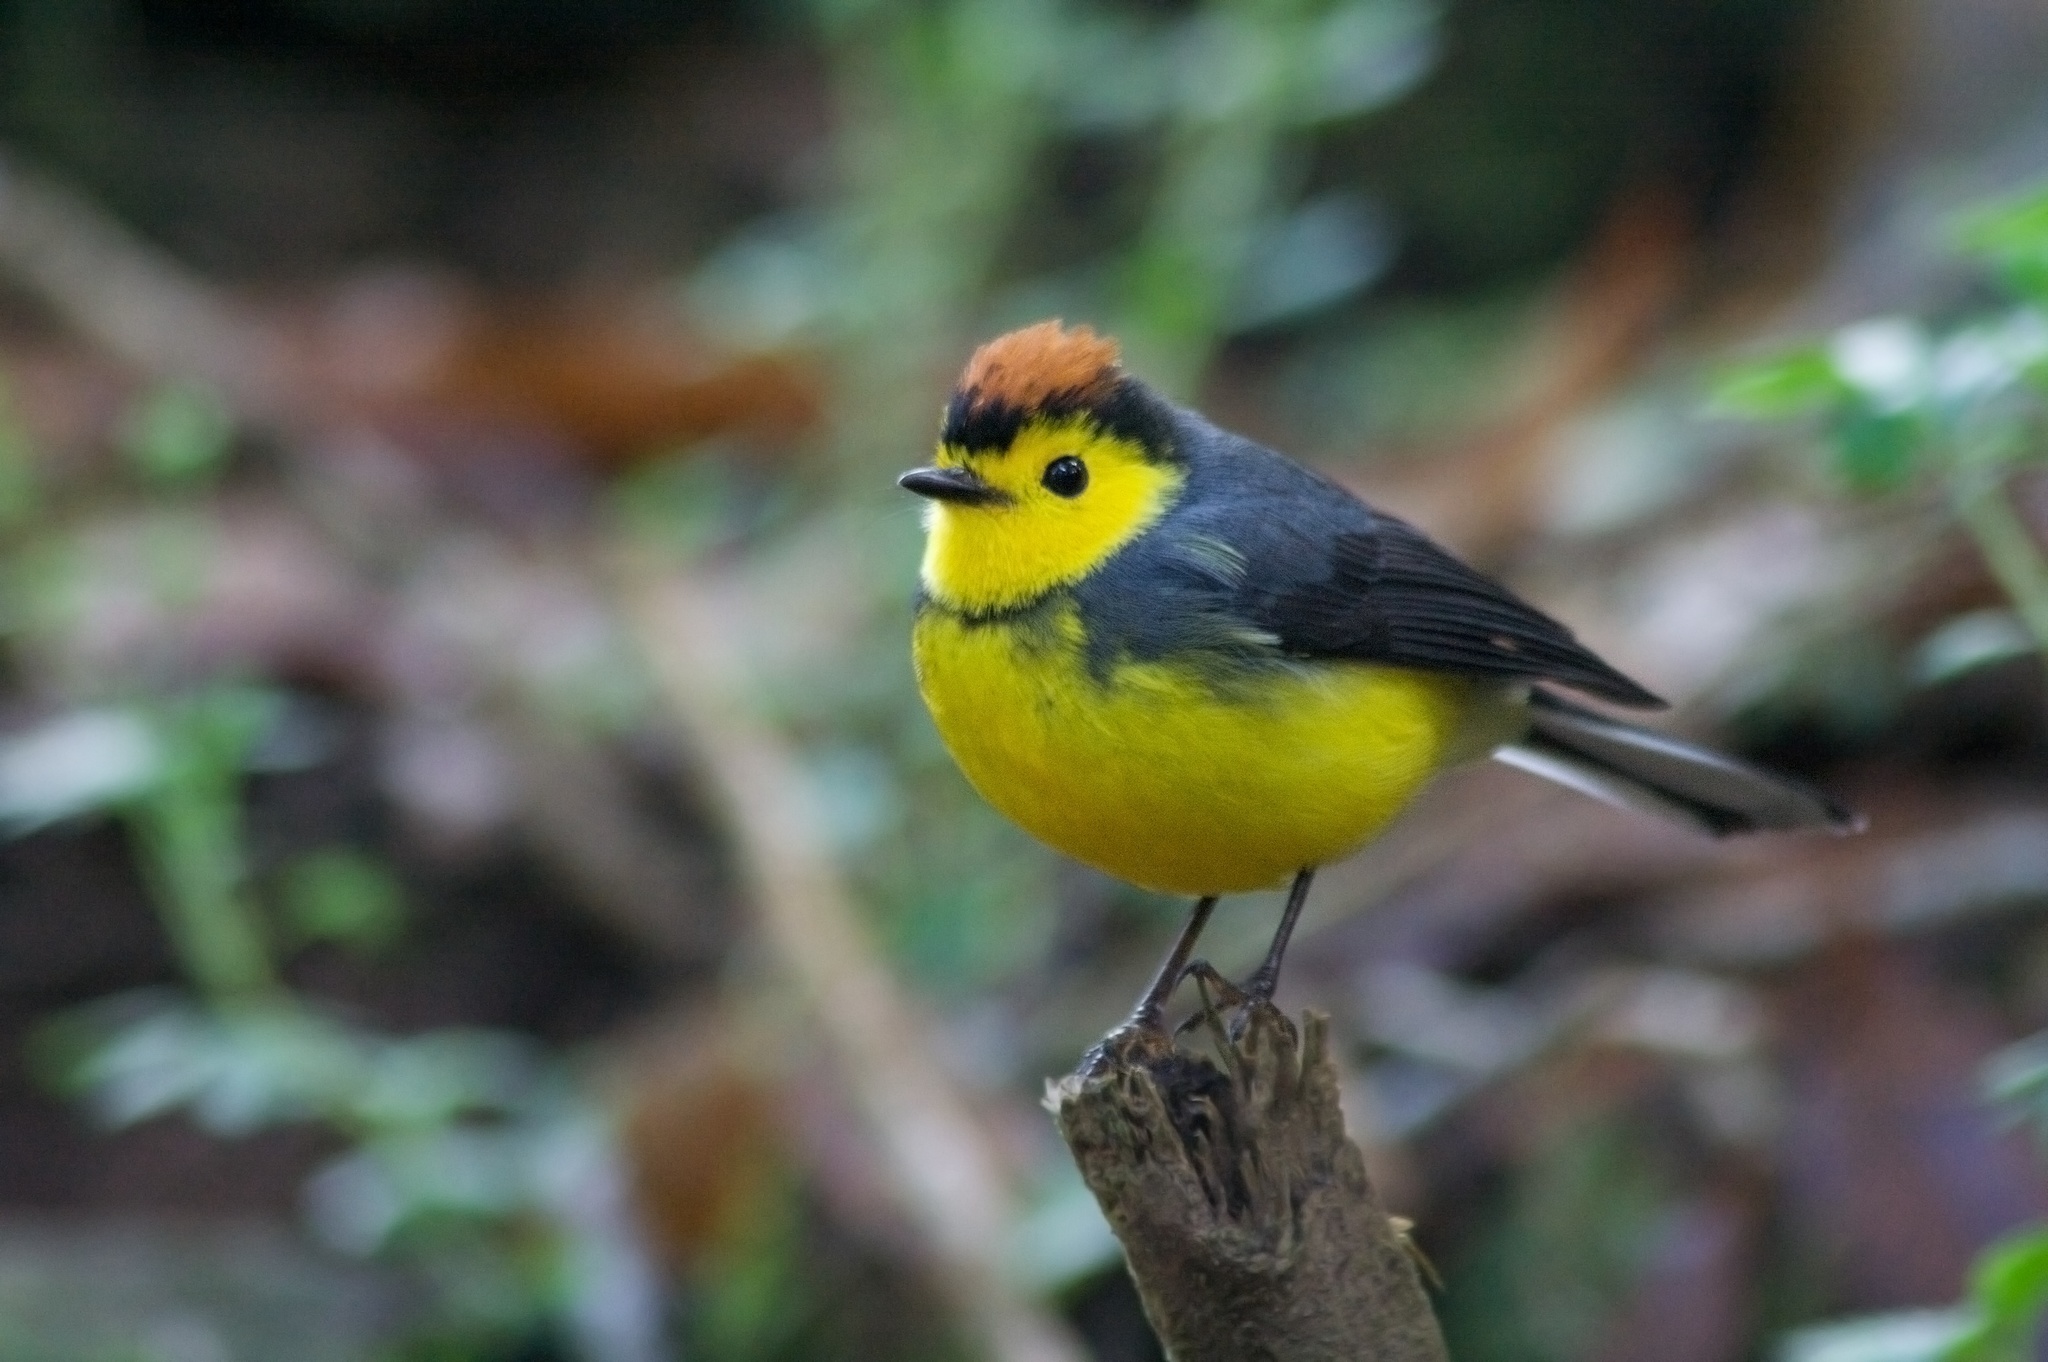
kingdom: Animalia
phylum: Chordata
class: Aves
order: Passeriformes
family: Parulidae
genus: Myioborus
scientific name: Myioborus torquatus
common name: Collared whitestart
